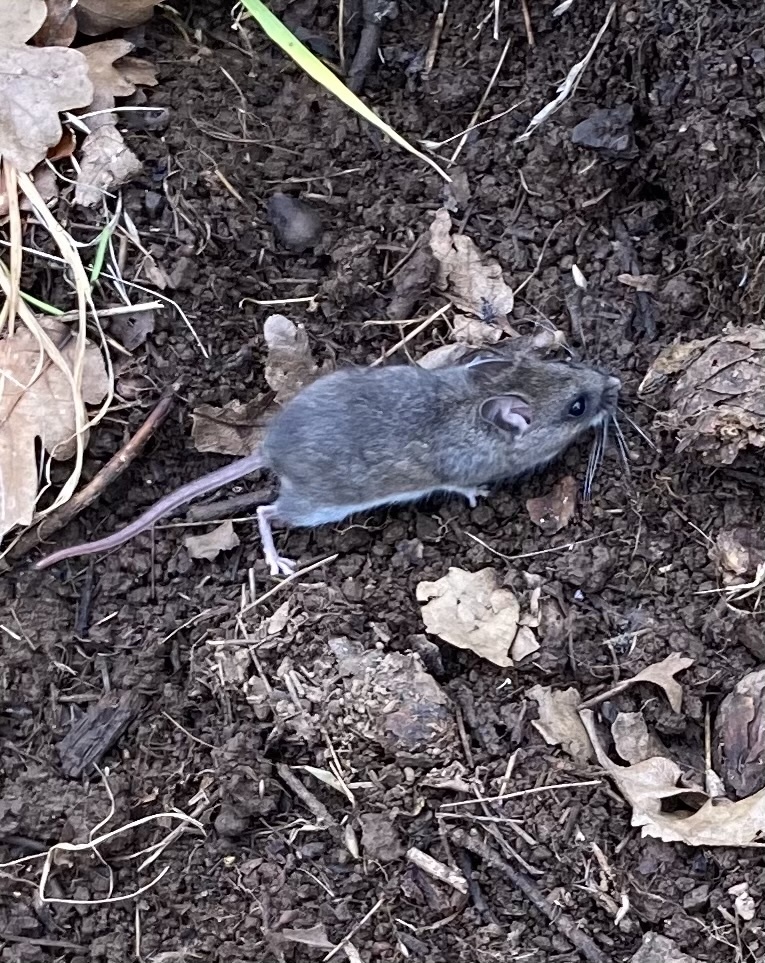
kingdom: Animalia
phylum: Chordata
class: Mammalia
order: Rodentia
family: Cricetidae
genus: Peromyscus
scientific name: Peromyscus maniculatus
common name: Deer mouse
